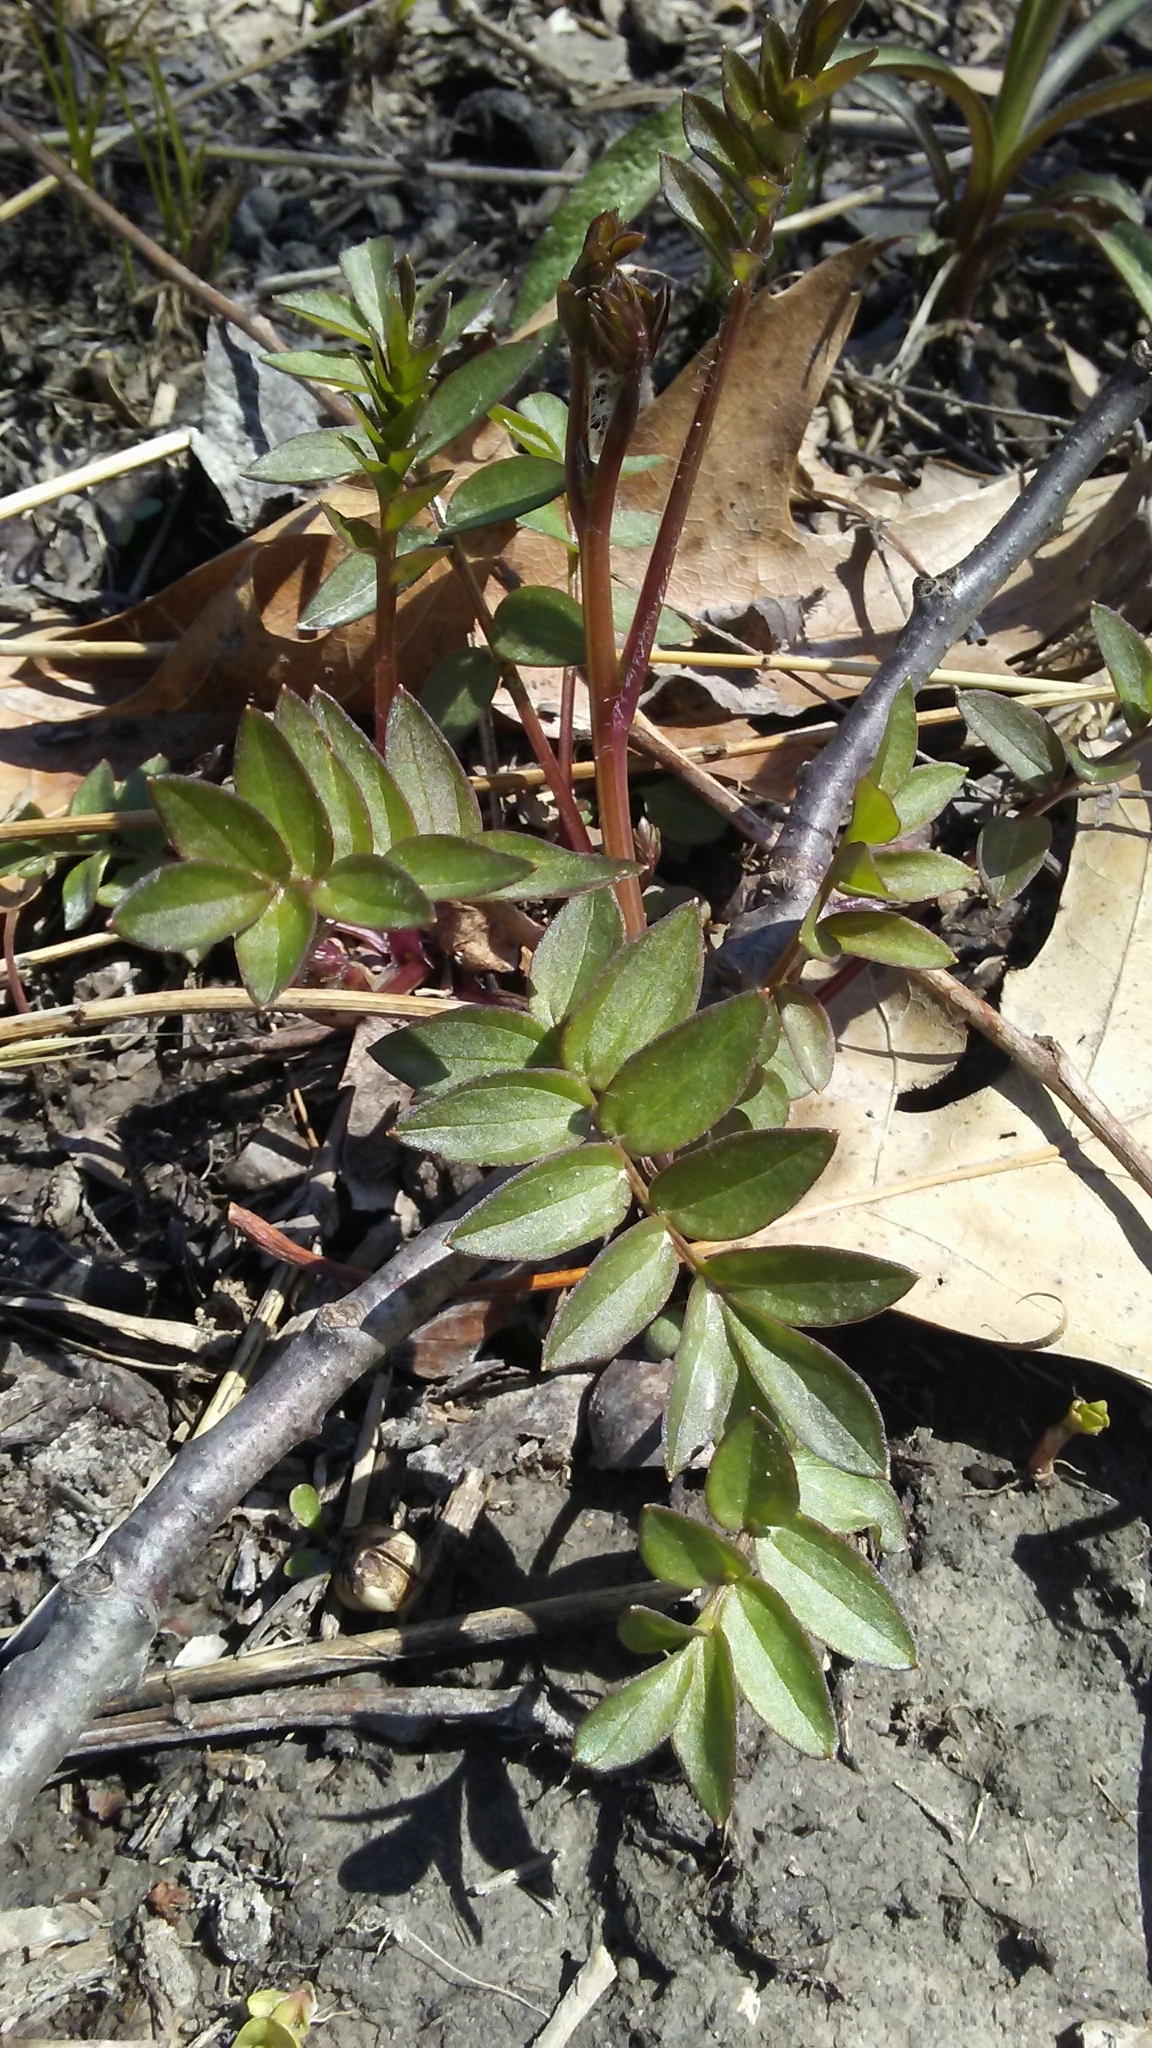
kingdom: Plantae
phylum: Tracheophyta
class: Magnoliopsida
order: Ericales
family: Polemoniaceae
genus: Polemonium
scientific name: Polemonium reptans
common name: Creeping jacob's-ladder
